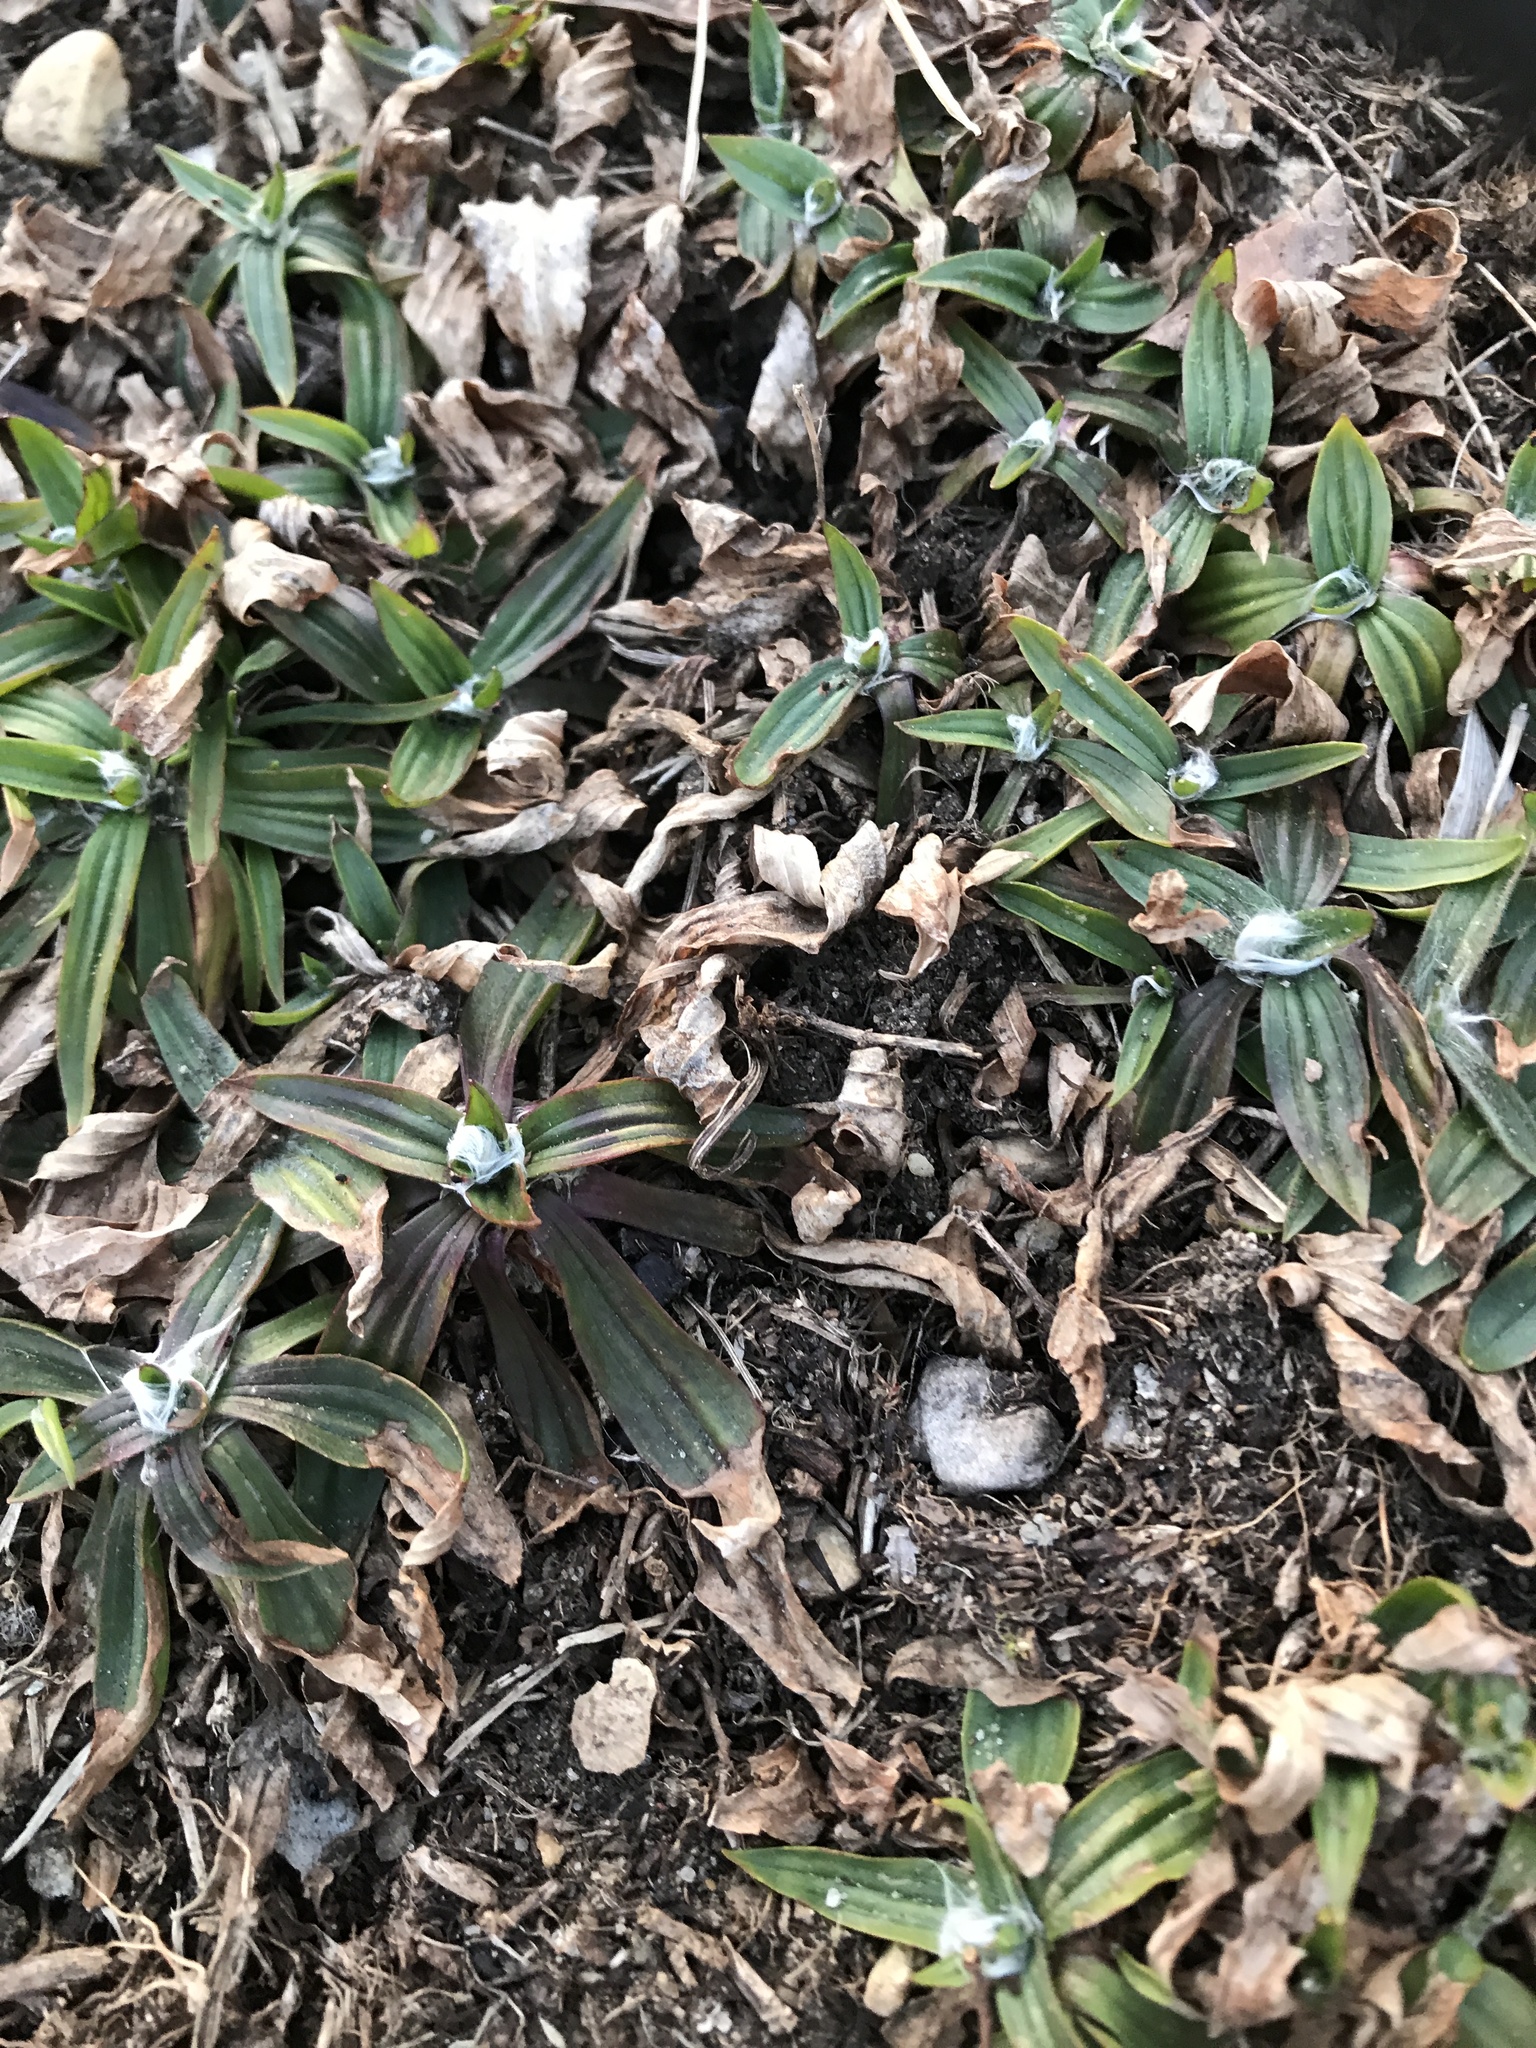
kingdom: Plantae
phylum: Tracheophyta
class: Magnoliopsida
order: Lamiales
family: Plantaginaceae
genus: Plantago
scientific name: Plantago lanceolata
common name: Ribwort plantain
